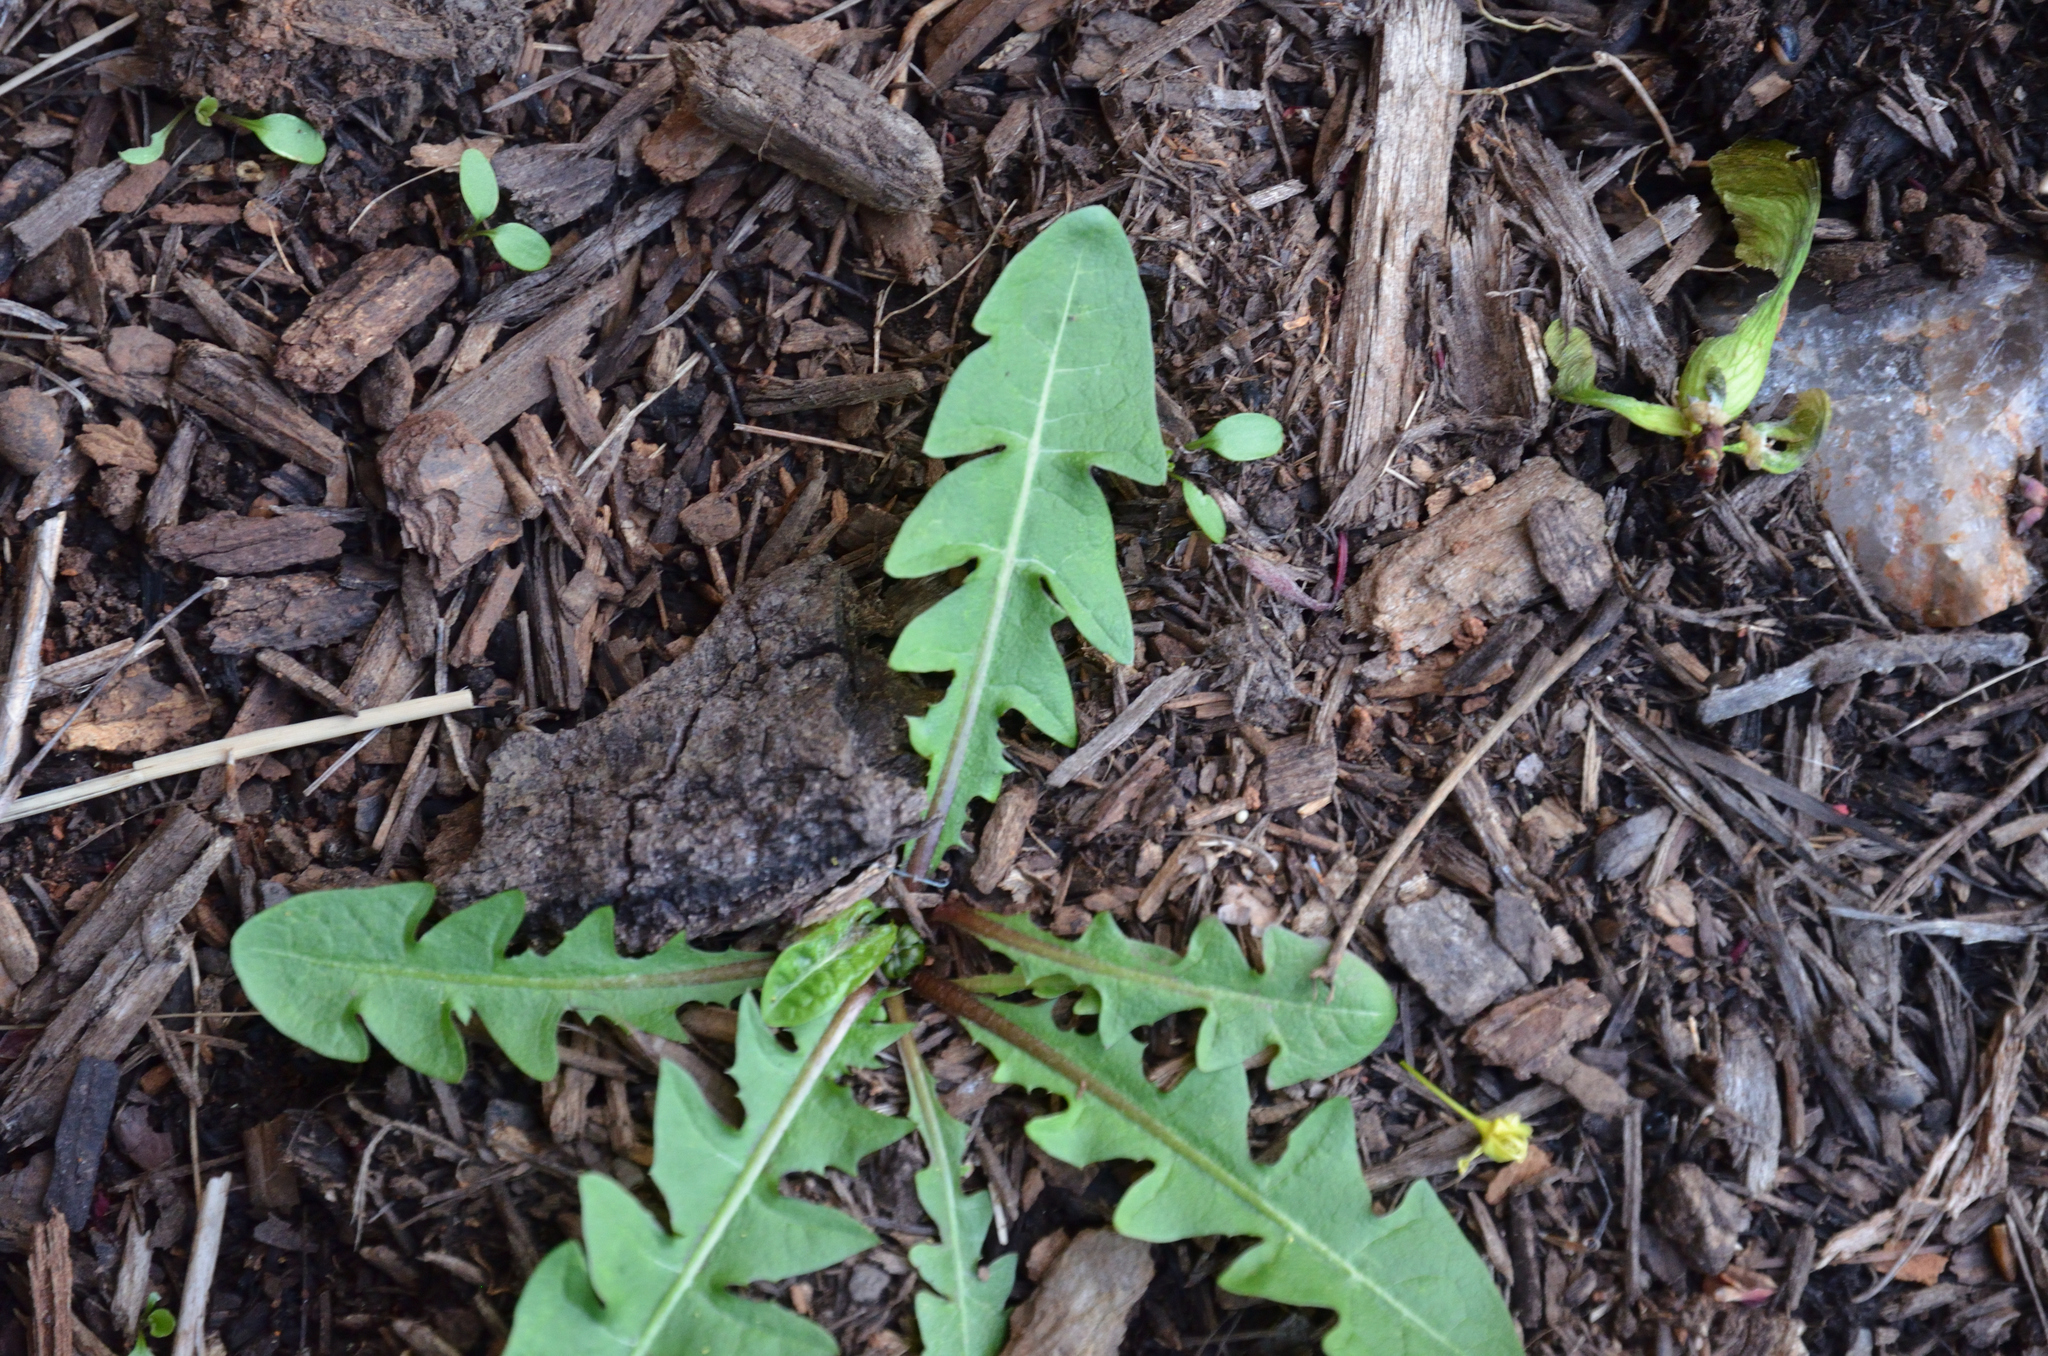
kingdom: Plantae
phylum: Tracheophyta
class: Magnoliopsida
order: Asterales
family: Asteraceae
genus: Taraxacum
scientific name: Taraxacum officinale
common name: Common dandelion
